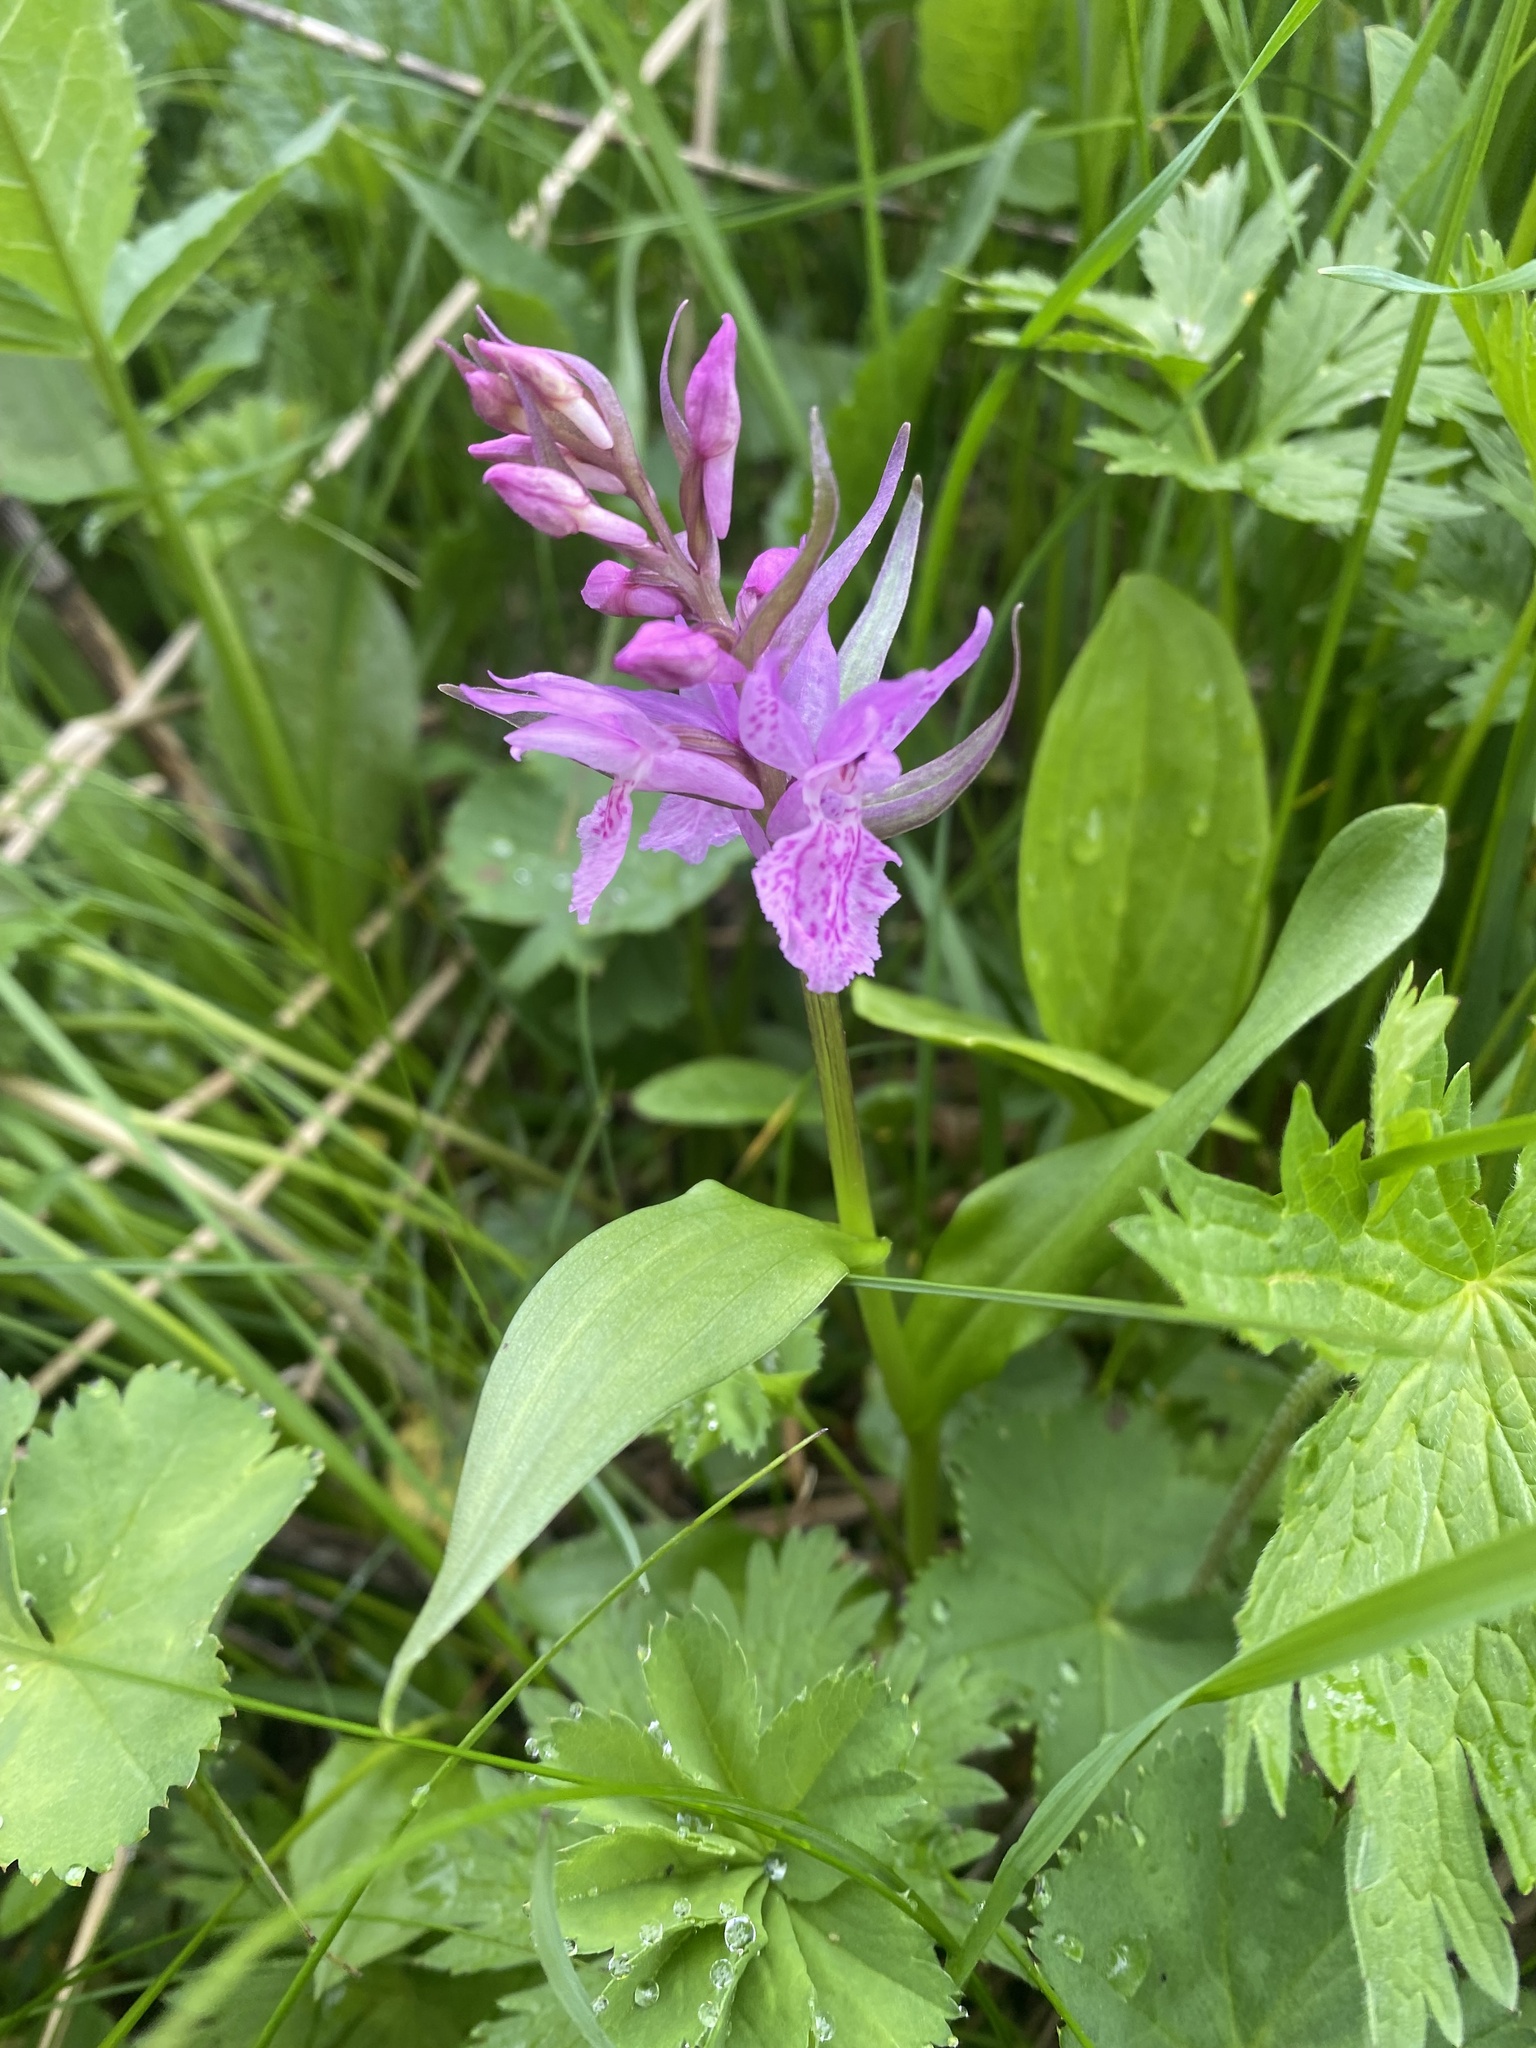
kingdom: Plantae
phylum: Tracheophyta
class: Liliopsida
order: Asparagales
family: Orchidaceae
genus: Dactylorhiza
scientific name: Dactylorhiza euxina
